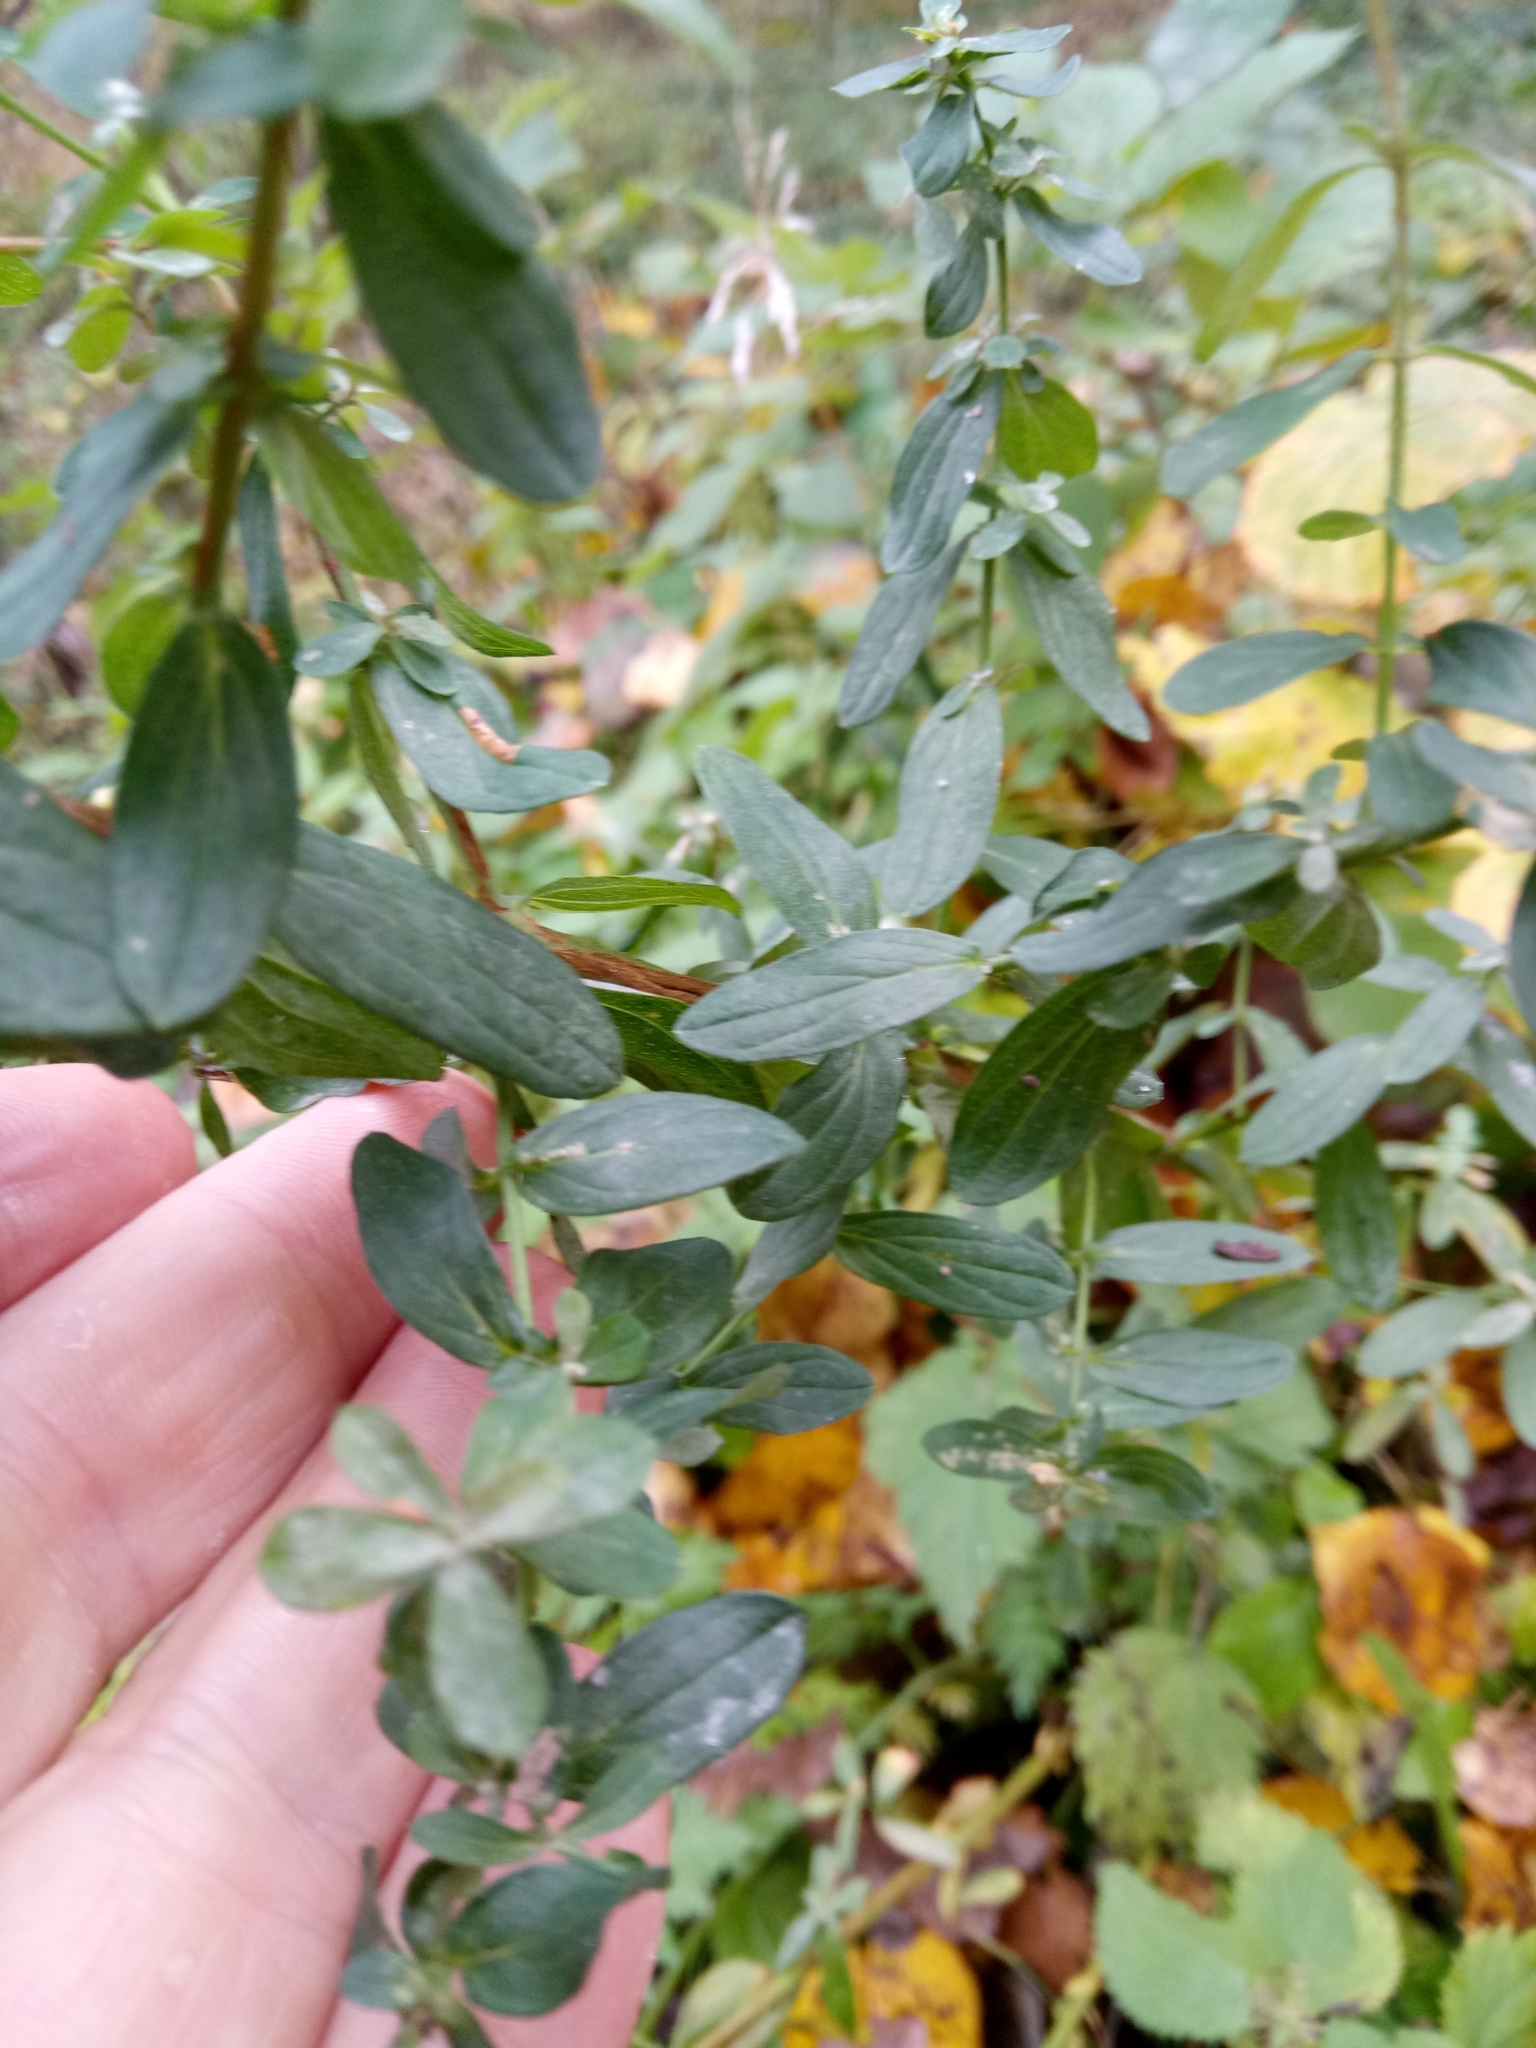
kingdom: Plantae
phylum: Tracheophyta
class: Magnoliopsida
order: Malpighiales
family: Hypericaceae
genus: Hypericum
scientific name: Hypericum perforatum
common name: Common st. johnswort
